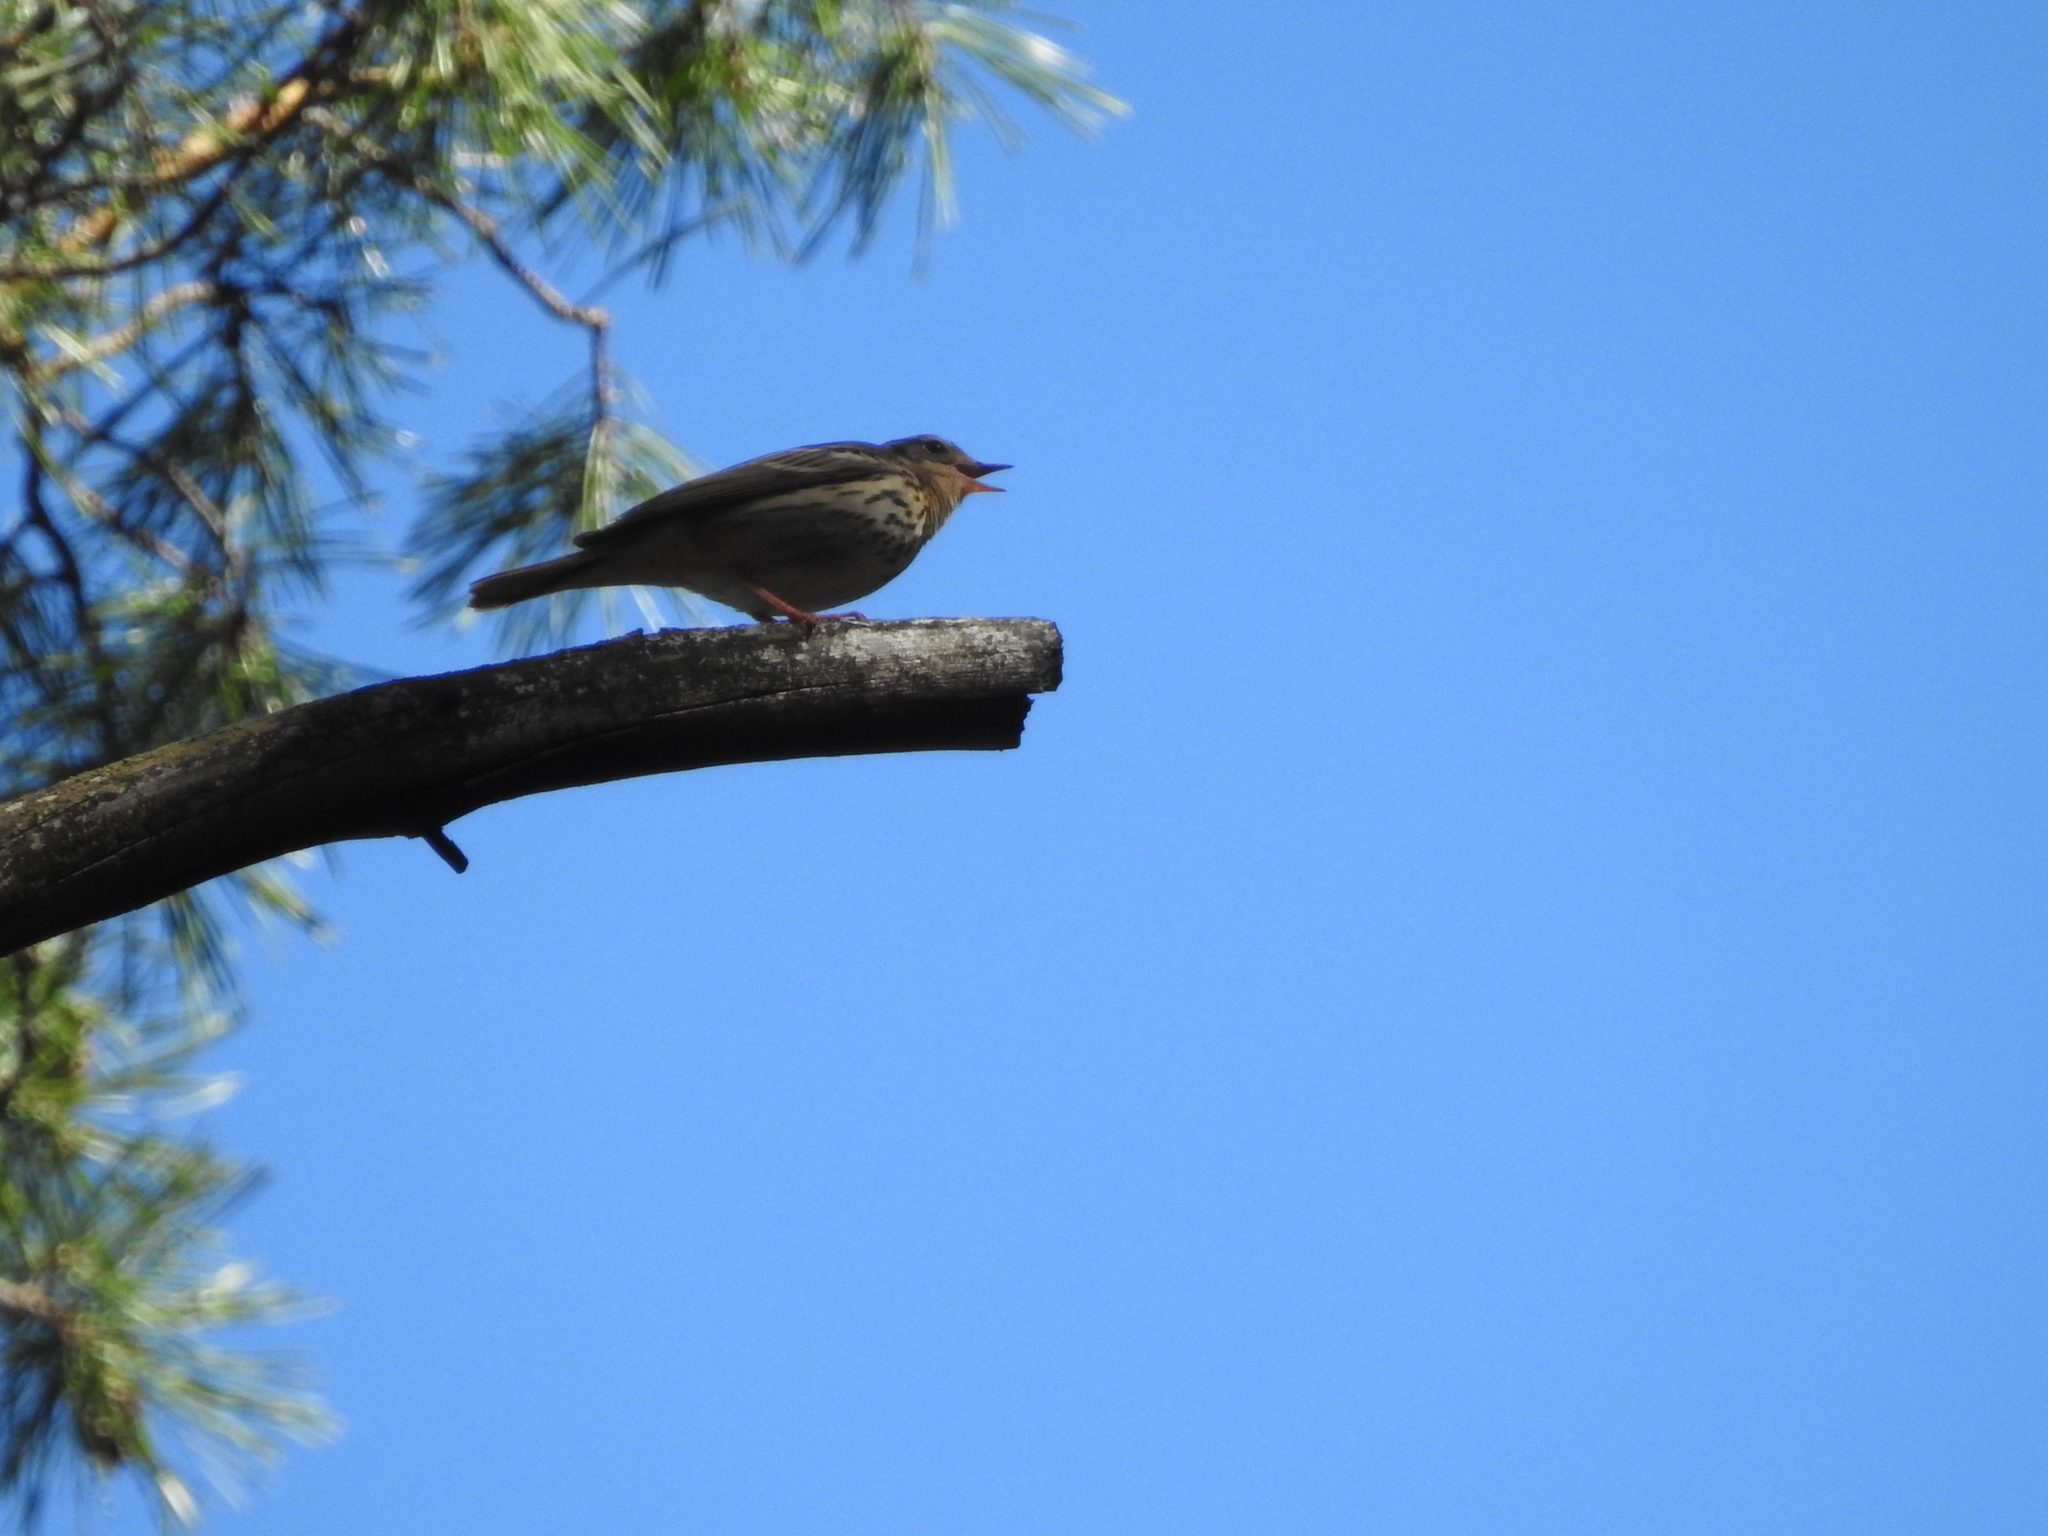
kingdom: Animalia
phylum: Chordata
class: Aves
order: Passeriformes
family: Motacillidae
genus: Anthus
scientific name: Anthus trivialis
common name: Tree pipit
